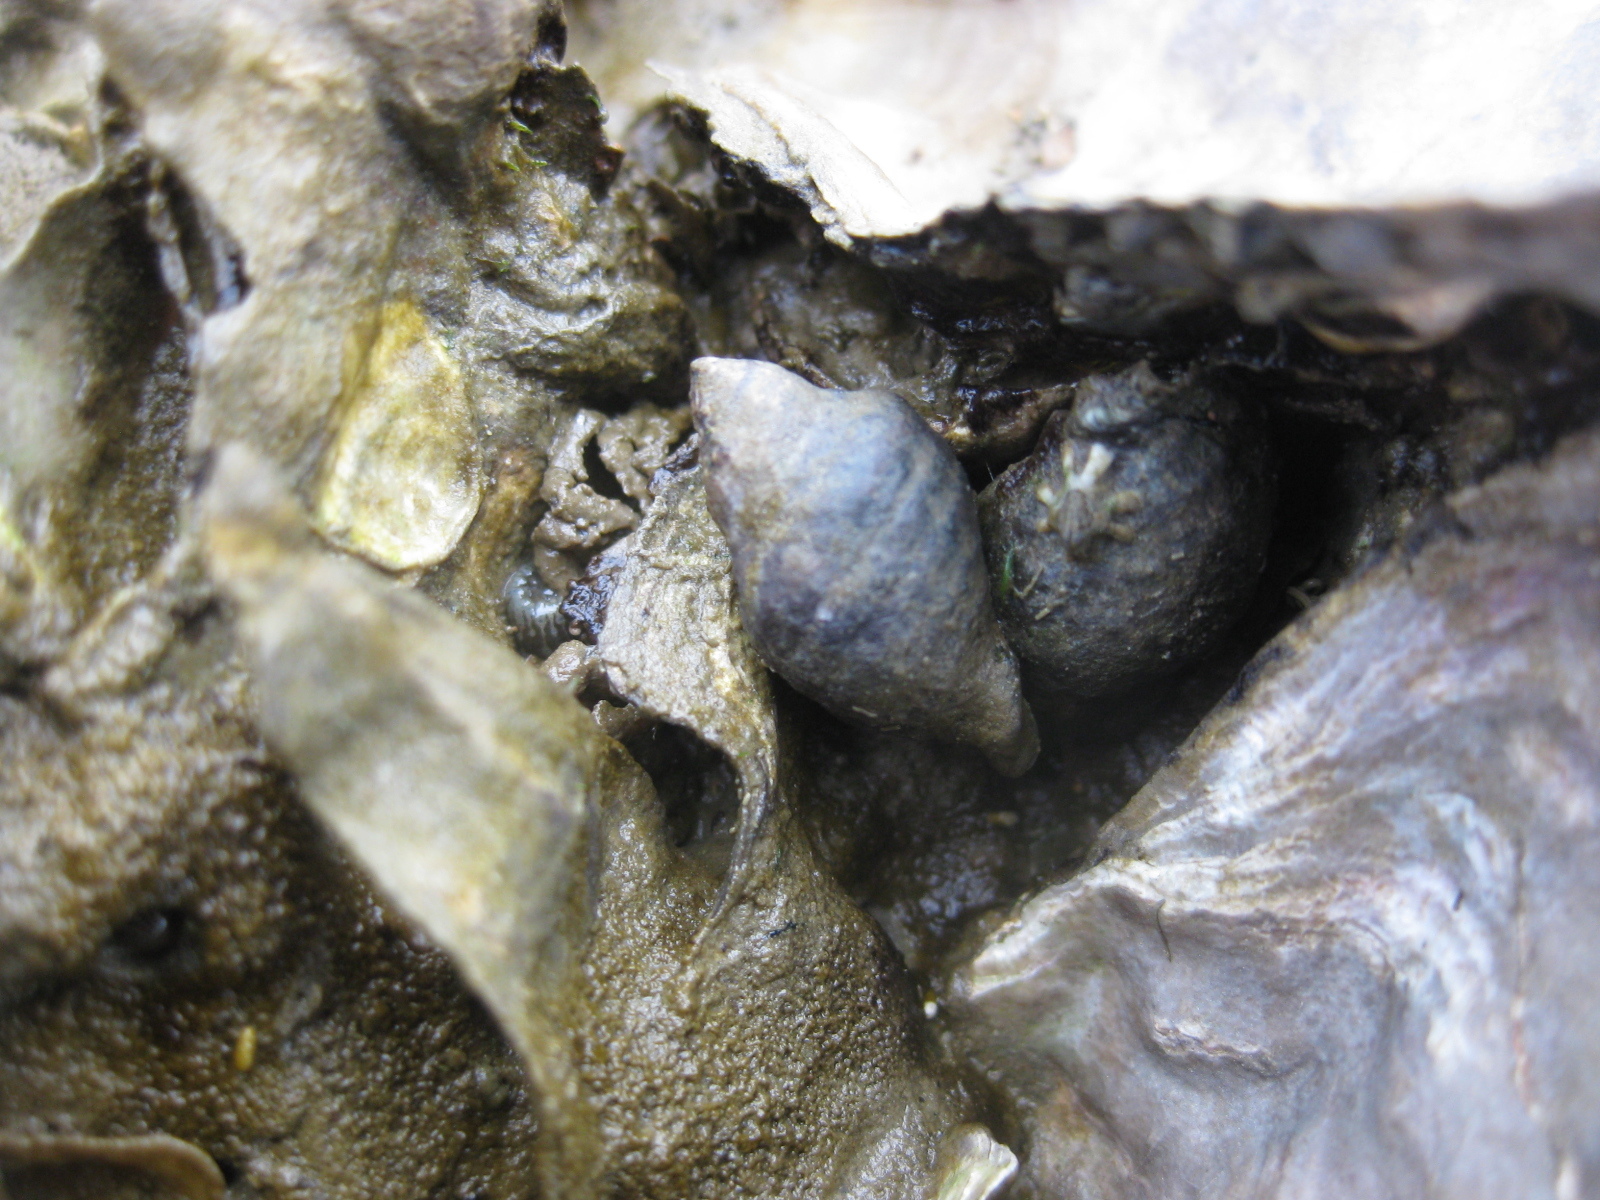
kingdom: Animalia
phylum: Mollusca
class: Gastropoda
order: Neogastropoda
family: Muricidae
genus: Haustrum
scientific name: Haustrum albomarginatum
